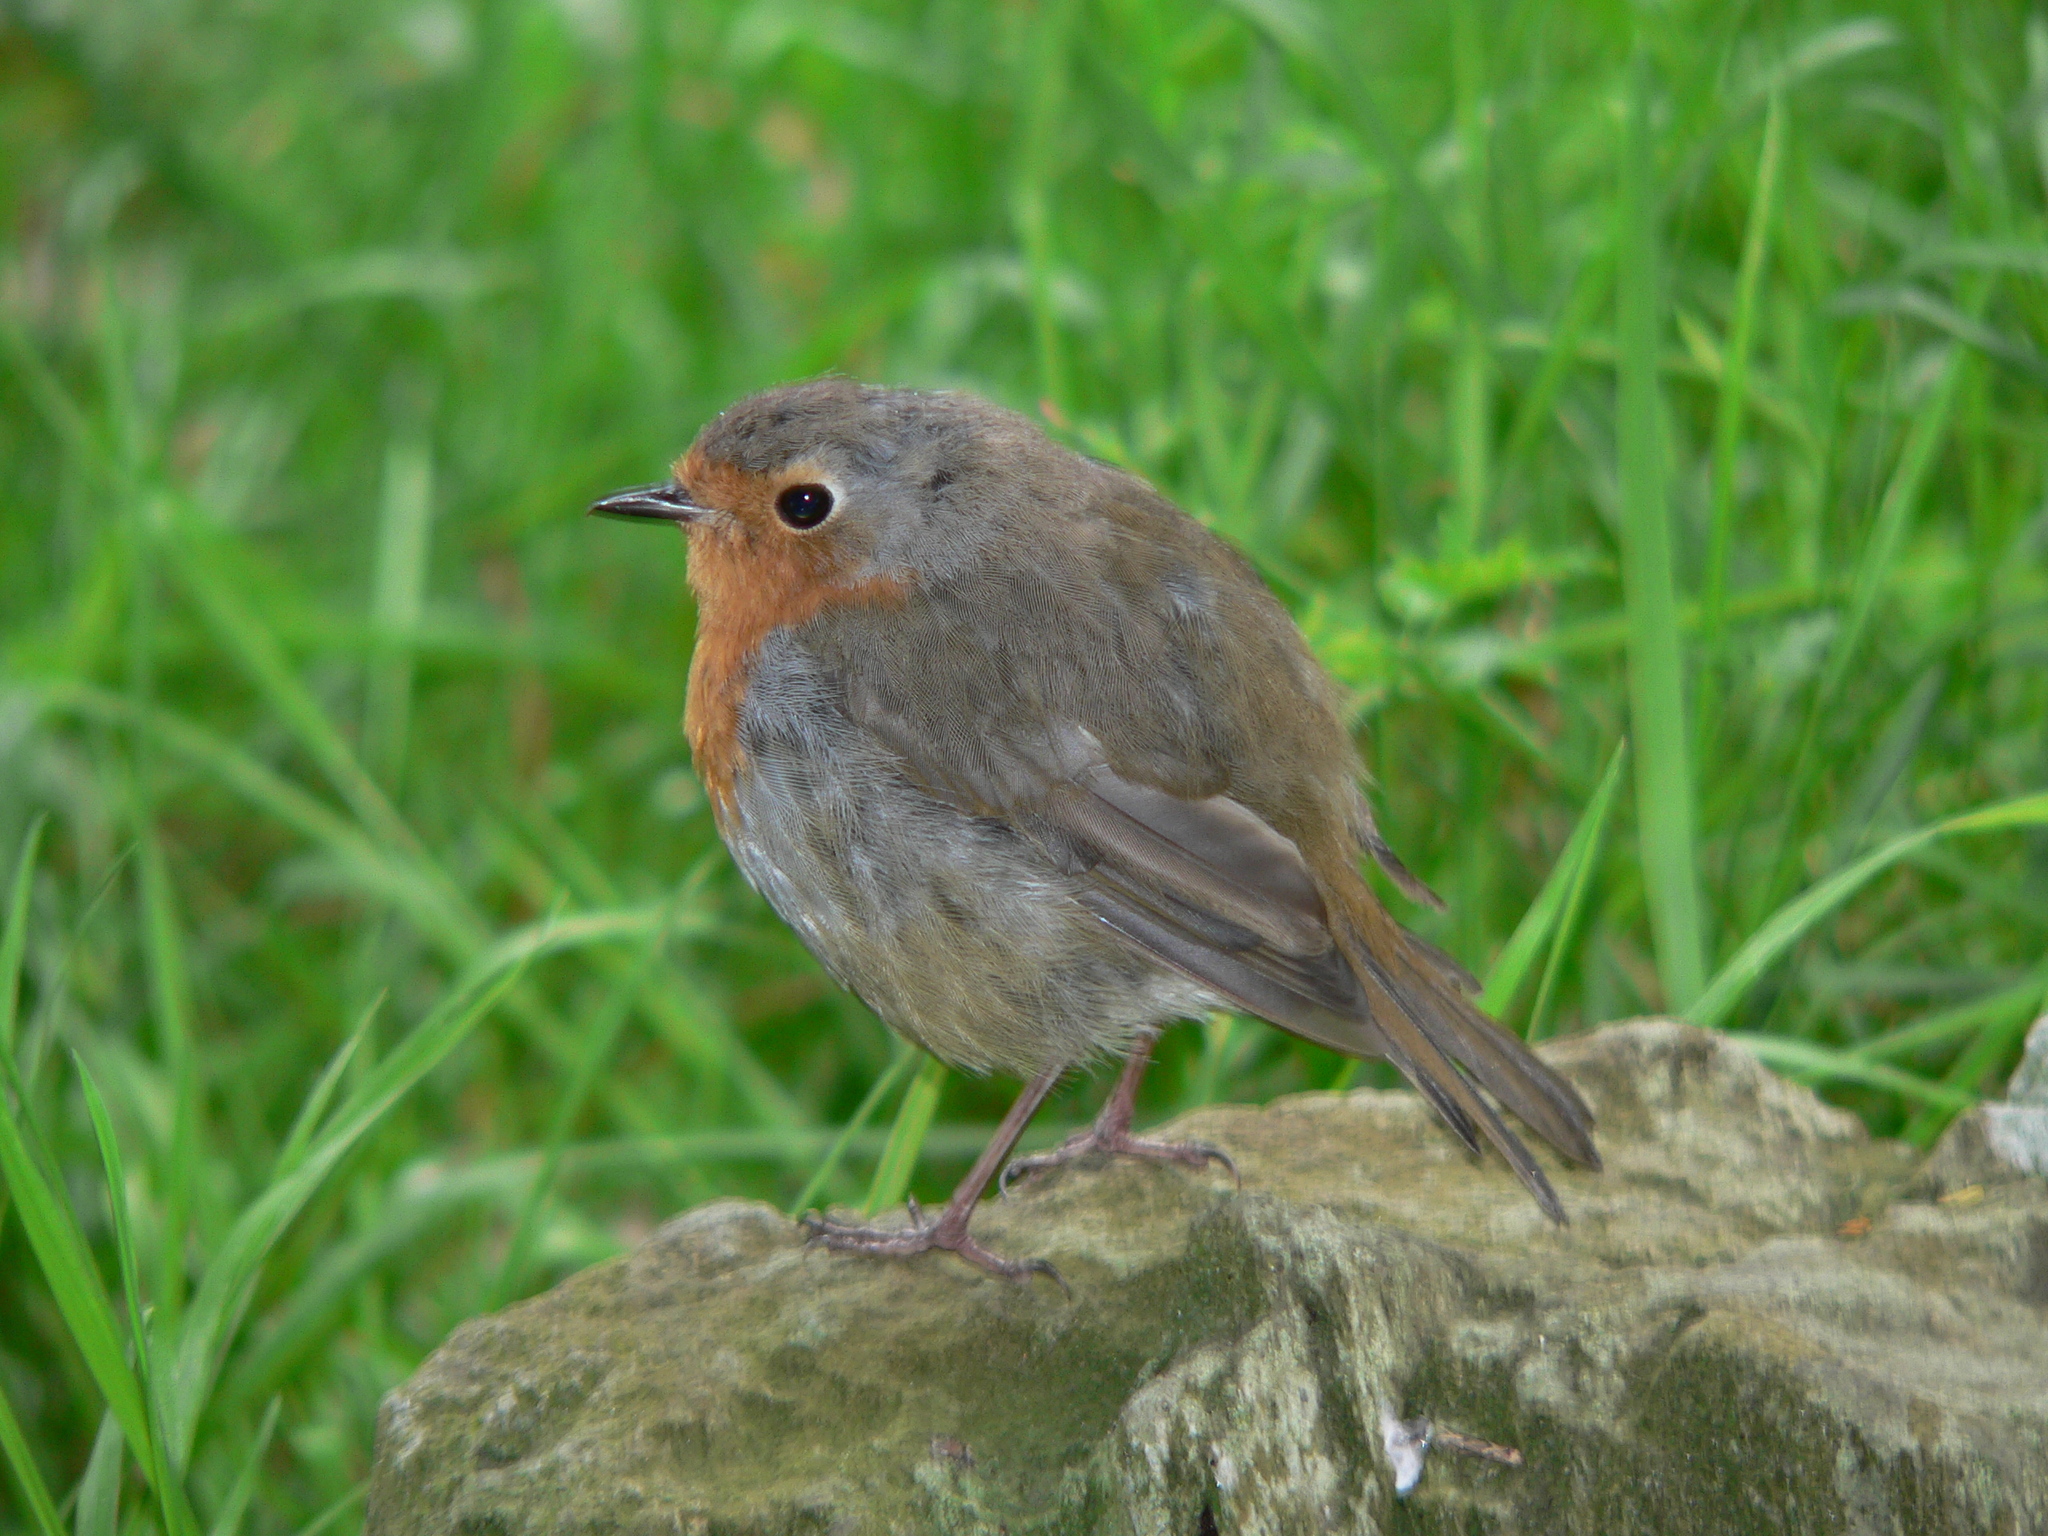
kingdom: Animalia
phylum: Chordata
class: Aves
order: Passeriformes
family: Muscicapidae
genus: Erithacus
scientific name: Erithacus rubecula
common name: European robin
